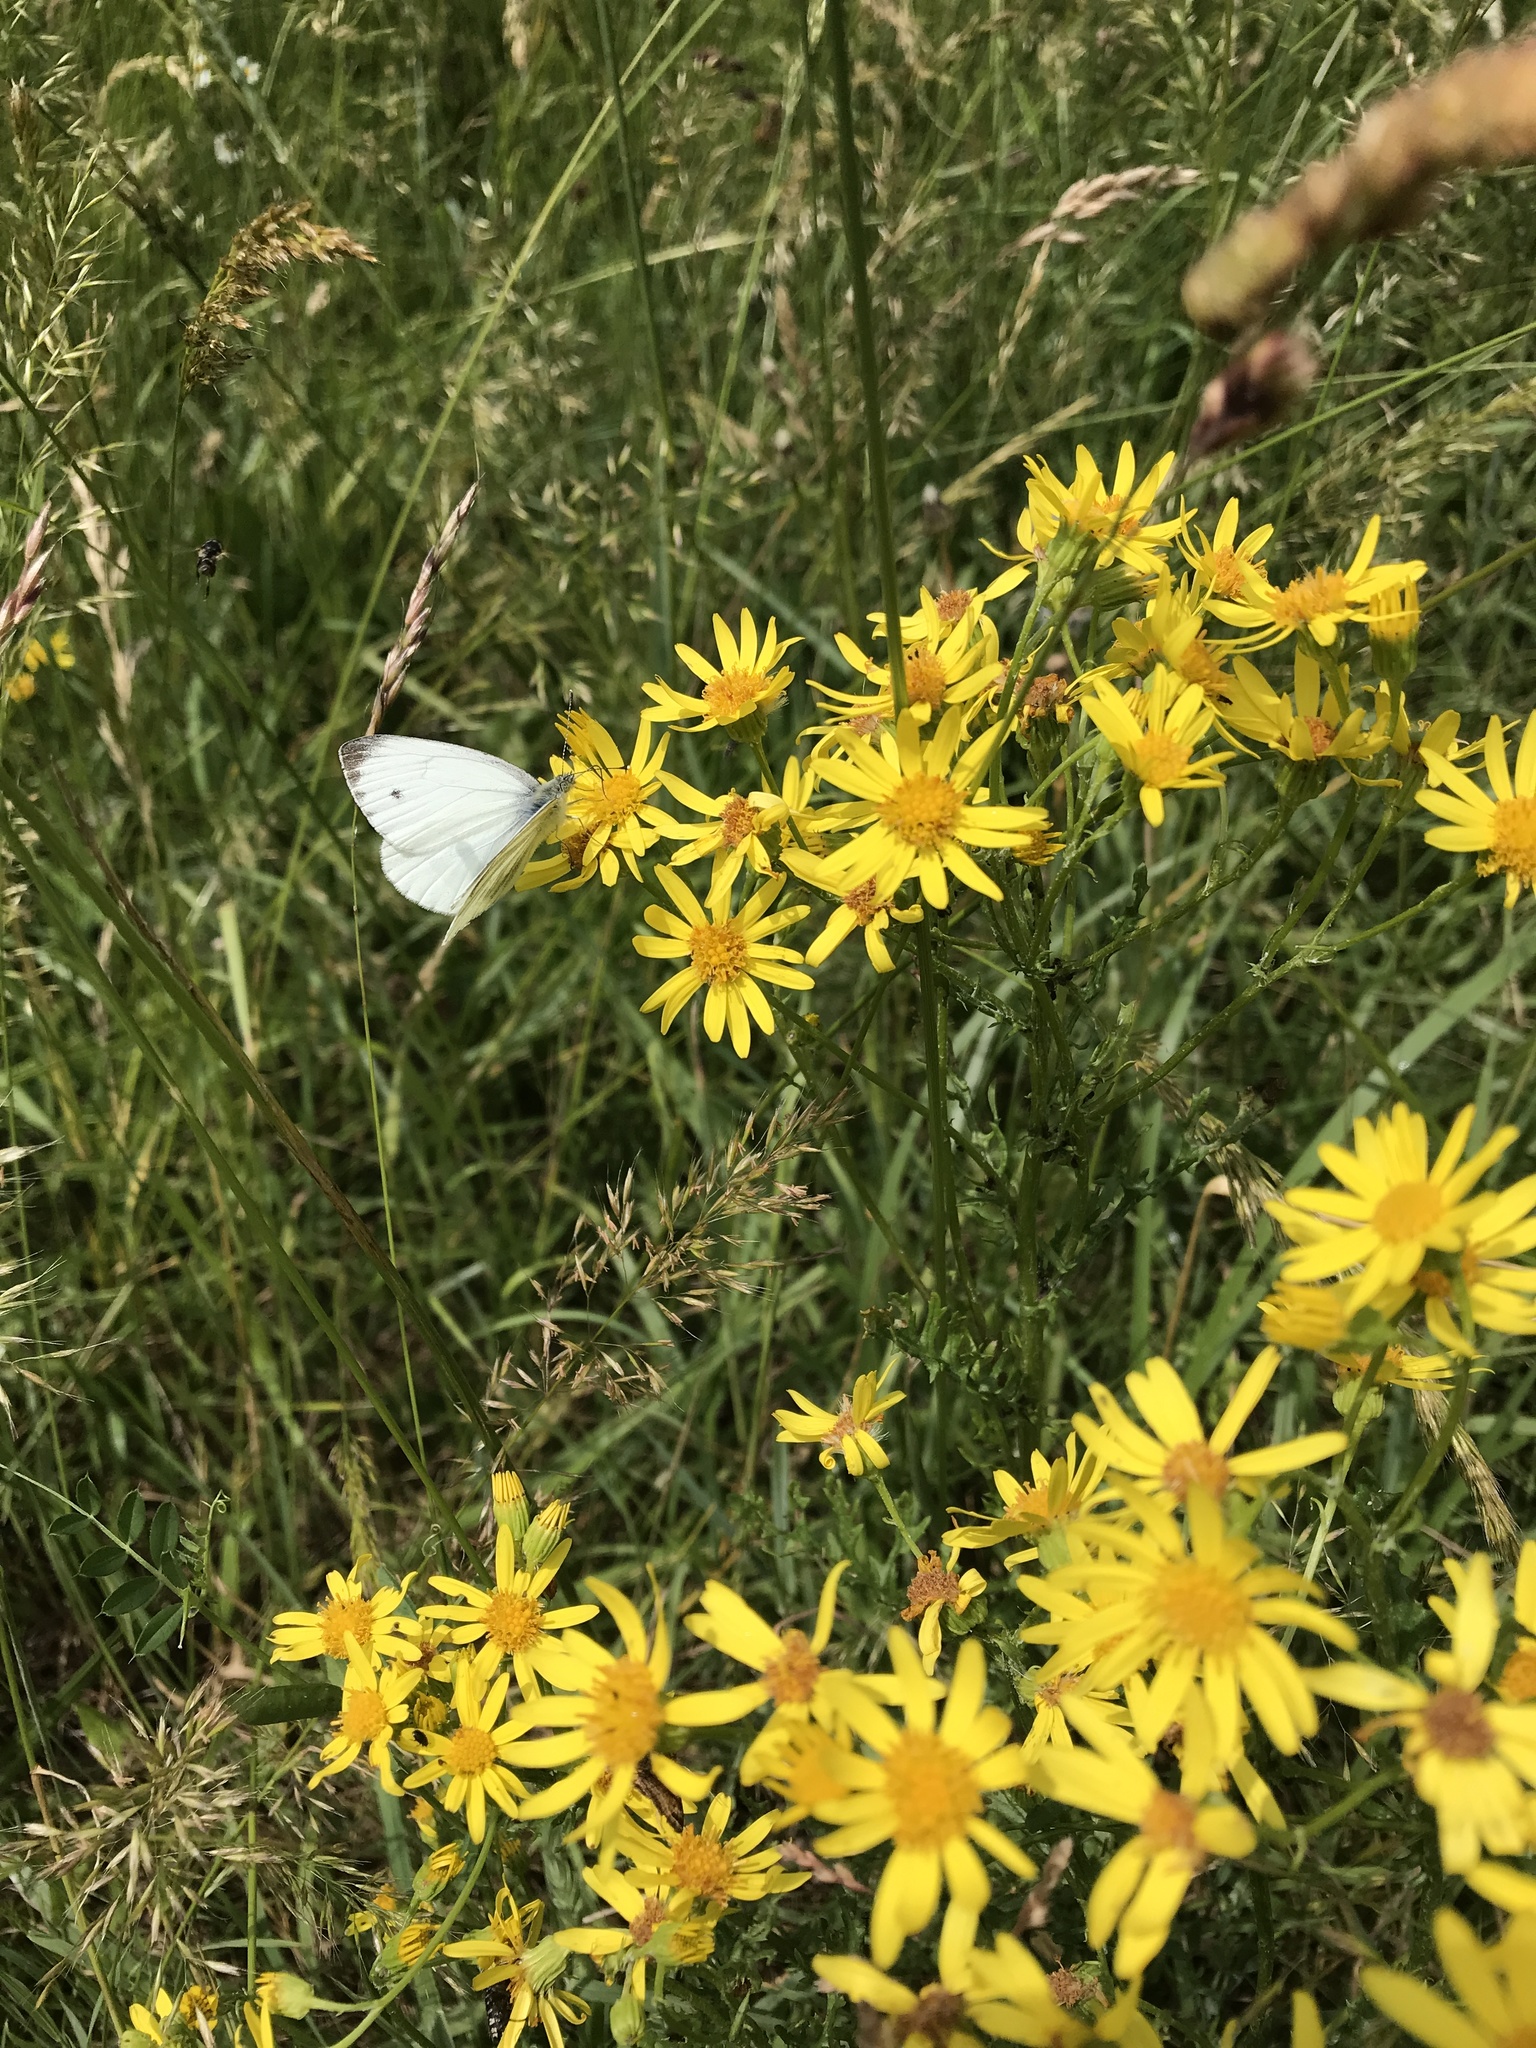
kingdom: Animalia
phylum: Arthropoda
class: Insecta
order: Lepidoptera
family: Pieridae
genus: Pieris
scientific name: Pieris napi
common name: Green-veined white
